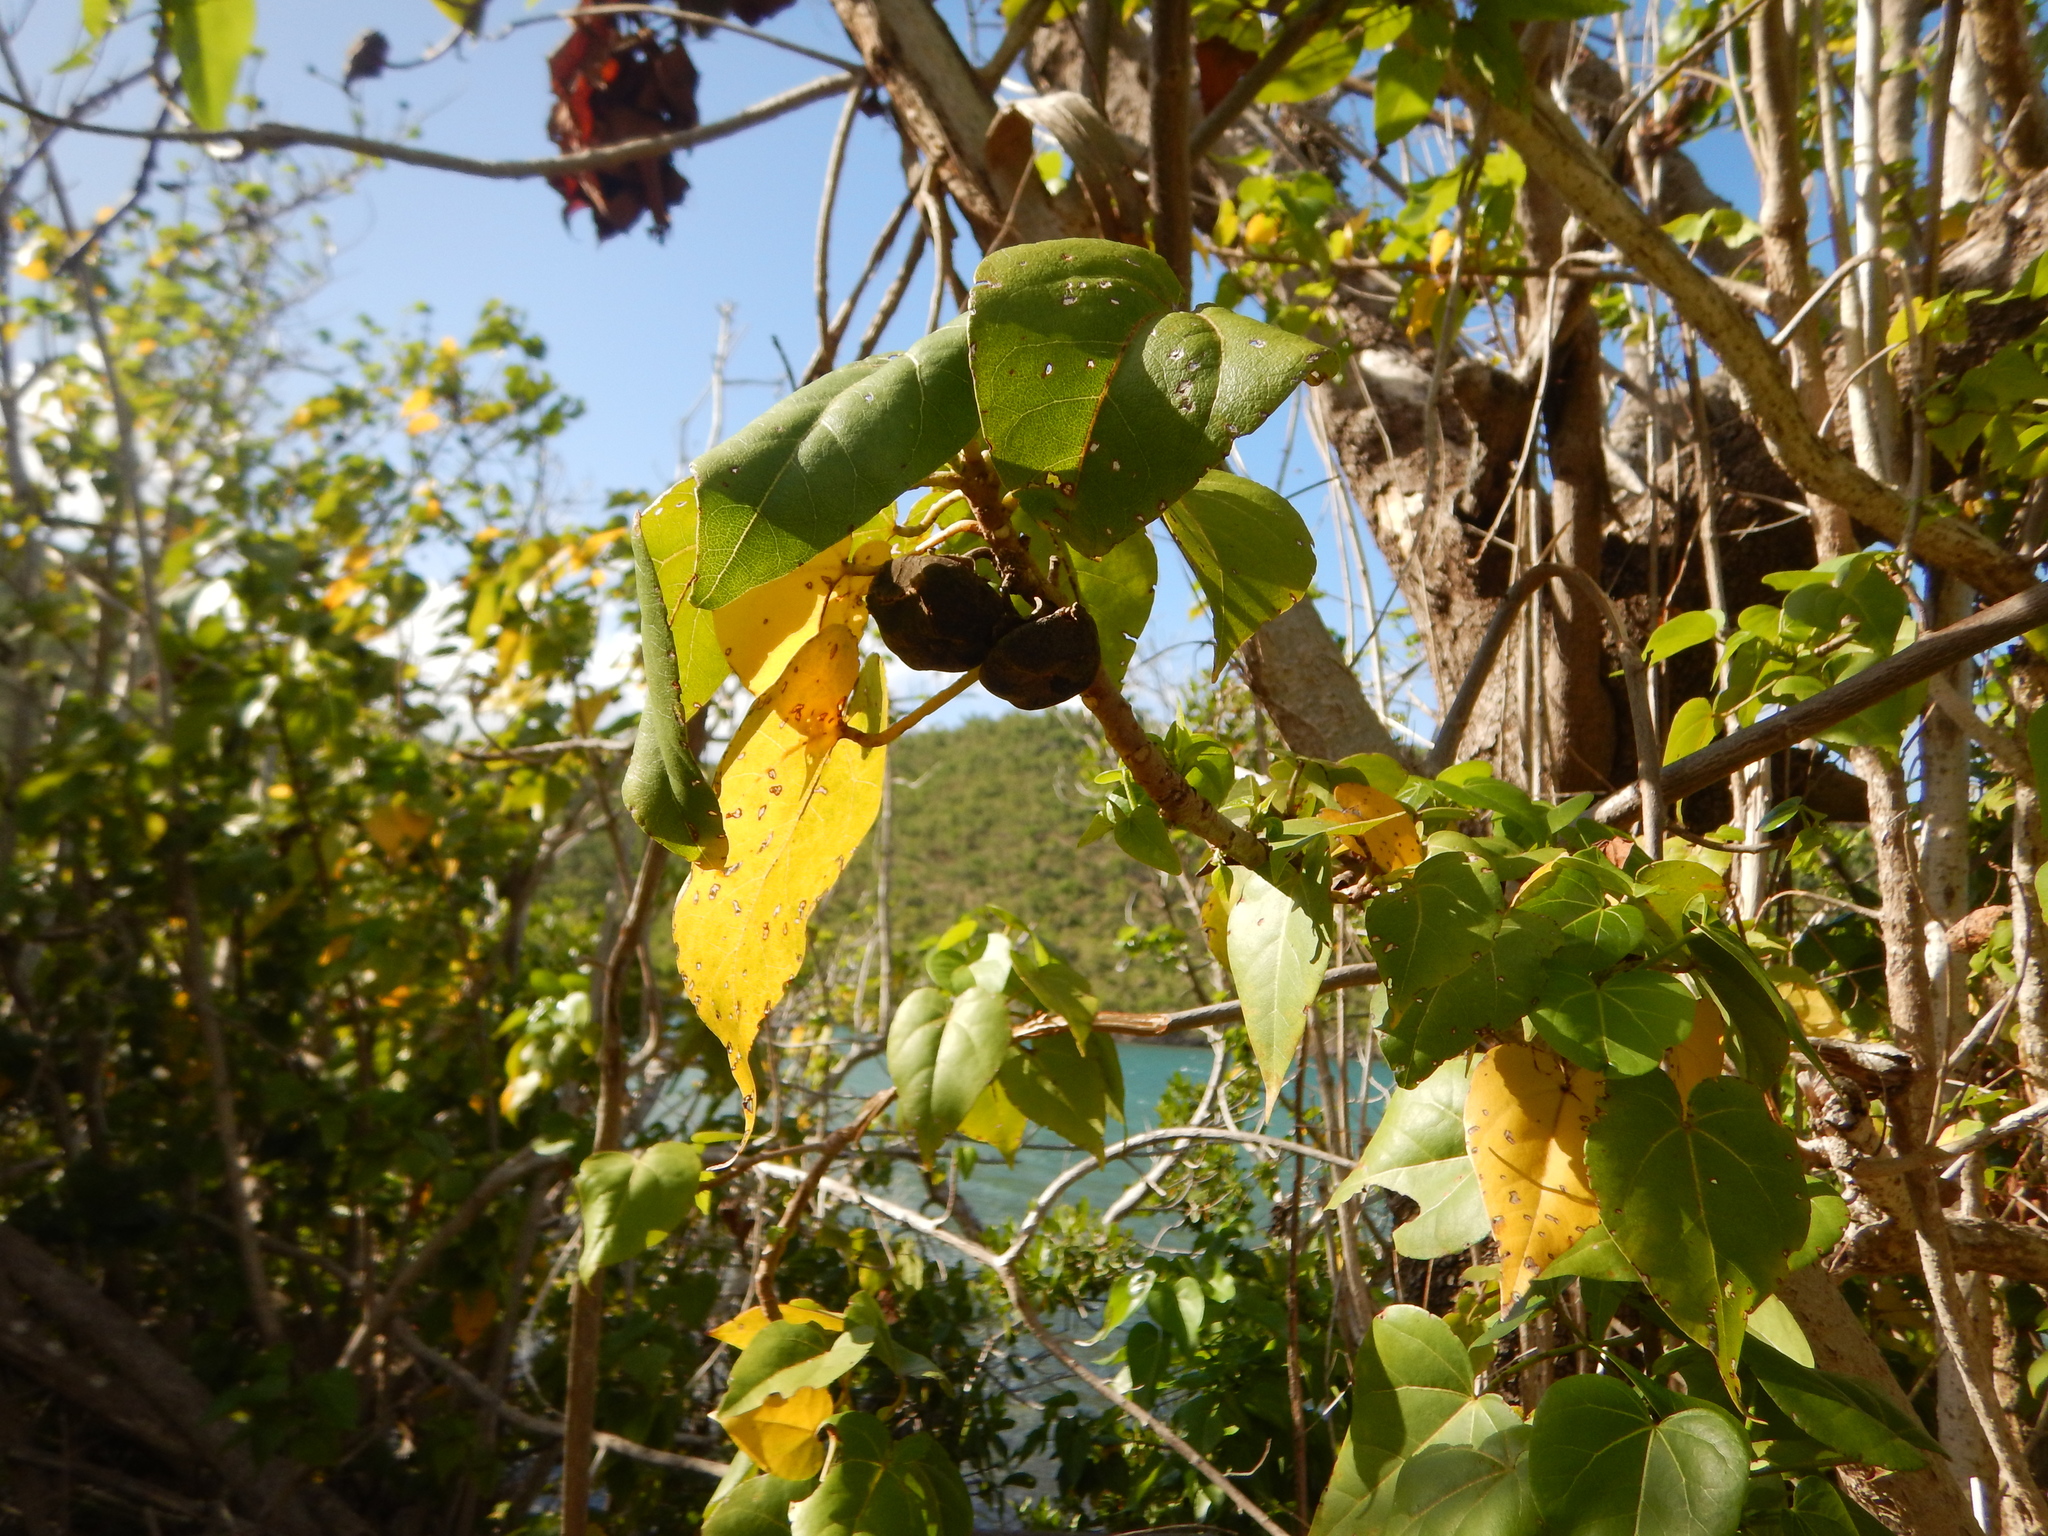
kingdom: Plantae
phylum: Tracheophyta
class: Magnoliopsida
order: Malvales
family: Malvaceae
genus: Thespesia
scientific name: Thespesia populnea
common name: Seaside mahoe
